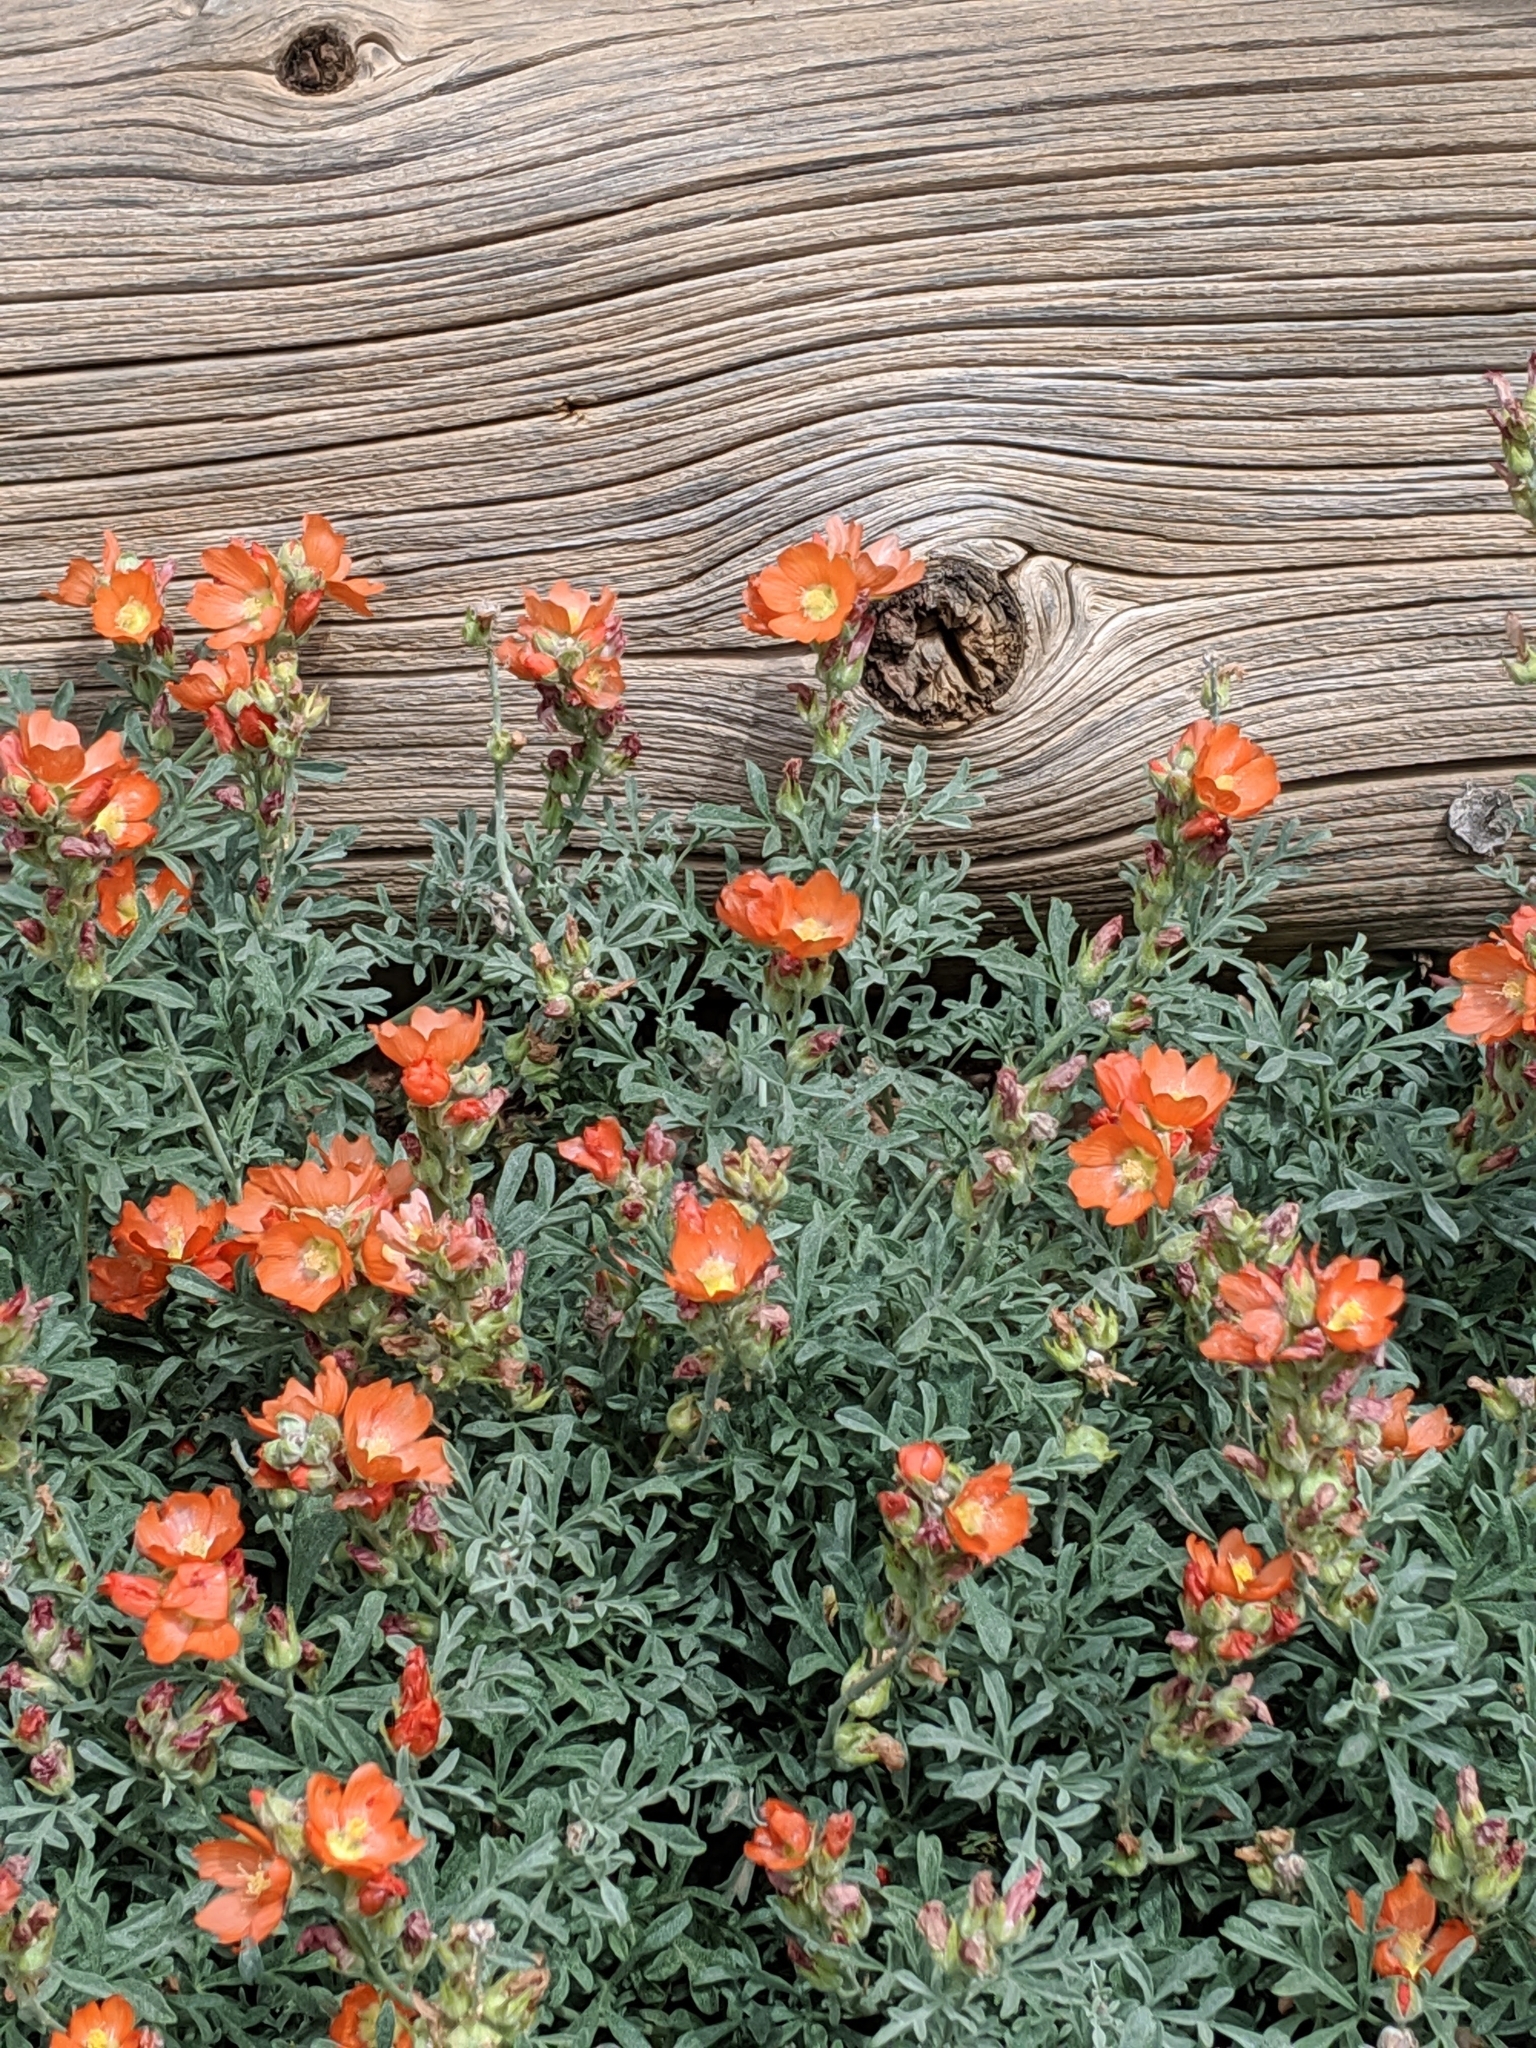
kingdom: Plantae
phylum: Tracheophyta
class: Magnoliopsida
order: Malvales
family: Malvaceae
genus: Sphaeralcea
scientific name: Sphaeralcea coccinea
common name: Moss-rose
